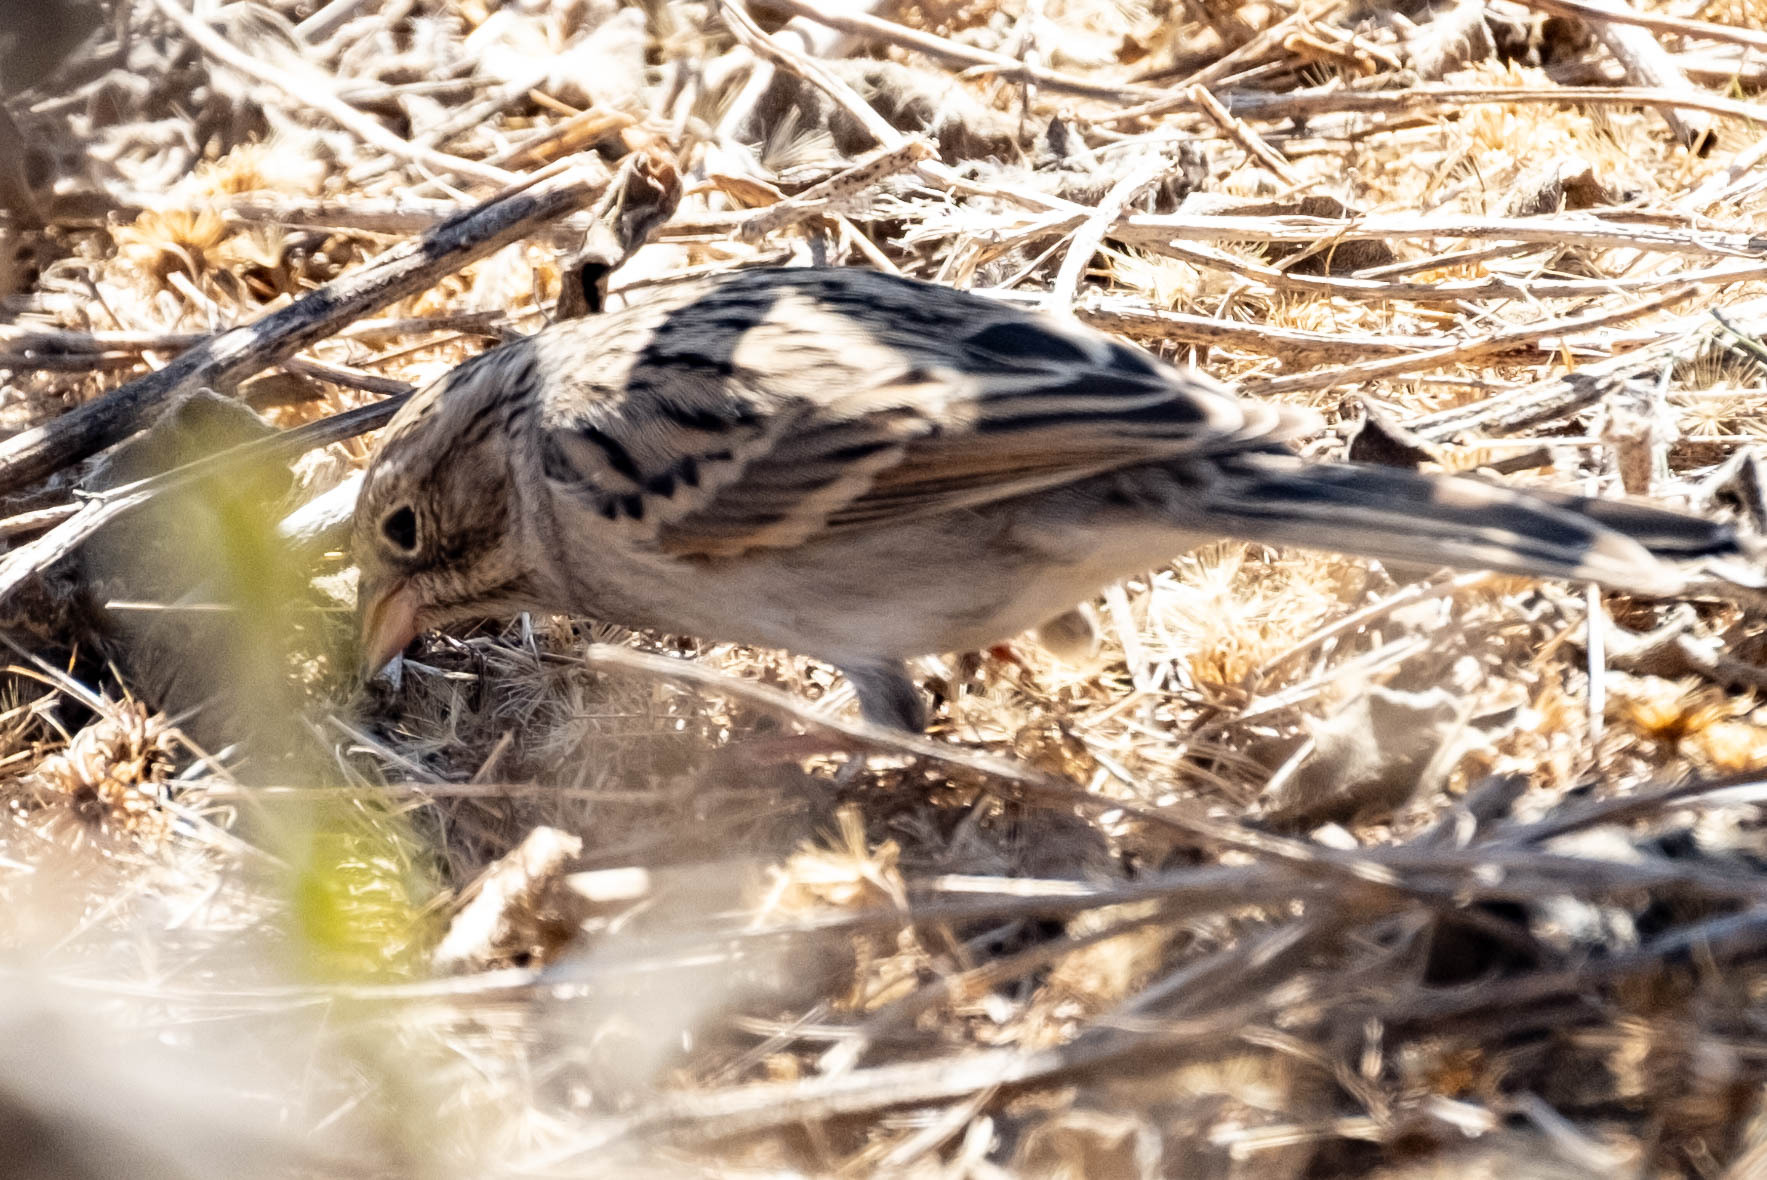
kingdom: Animalia
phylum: Chordata
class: Aves
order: Passeriformes
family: Passerellidae
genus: Spizella
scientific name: Spizella breweri
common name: Brewer's sparrow
